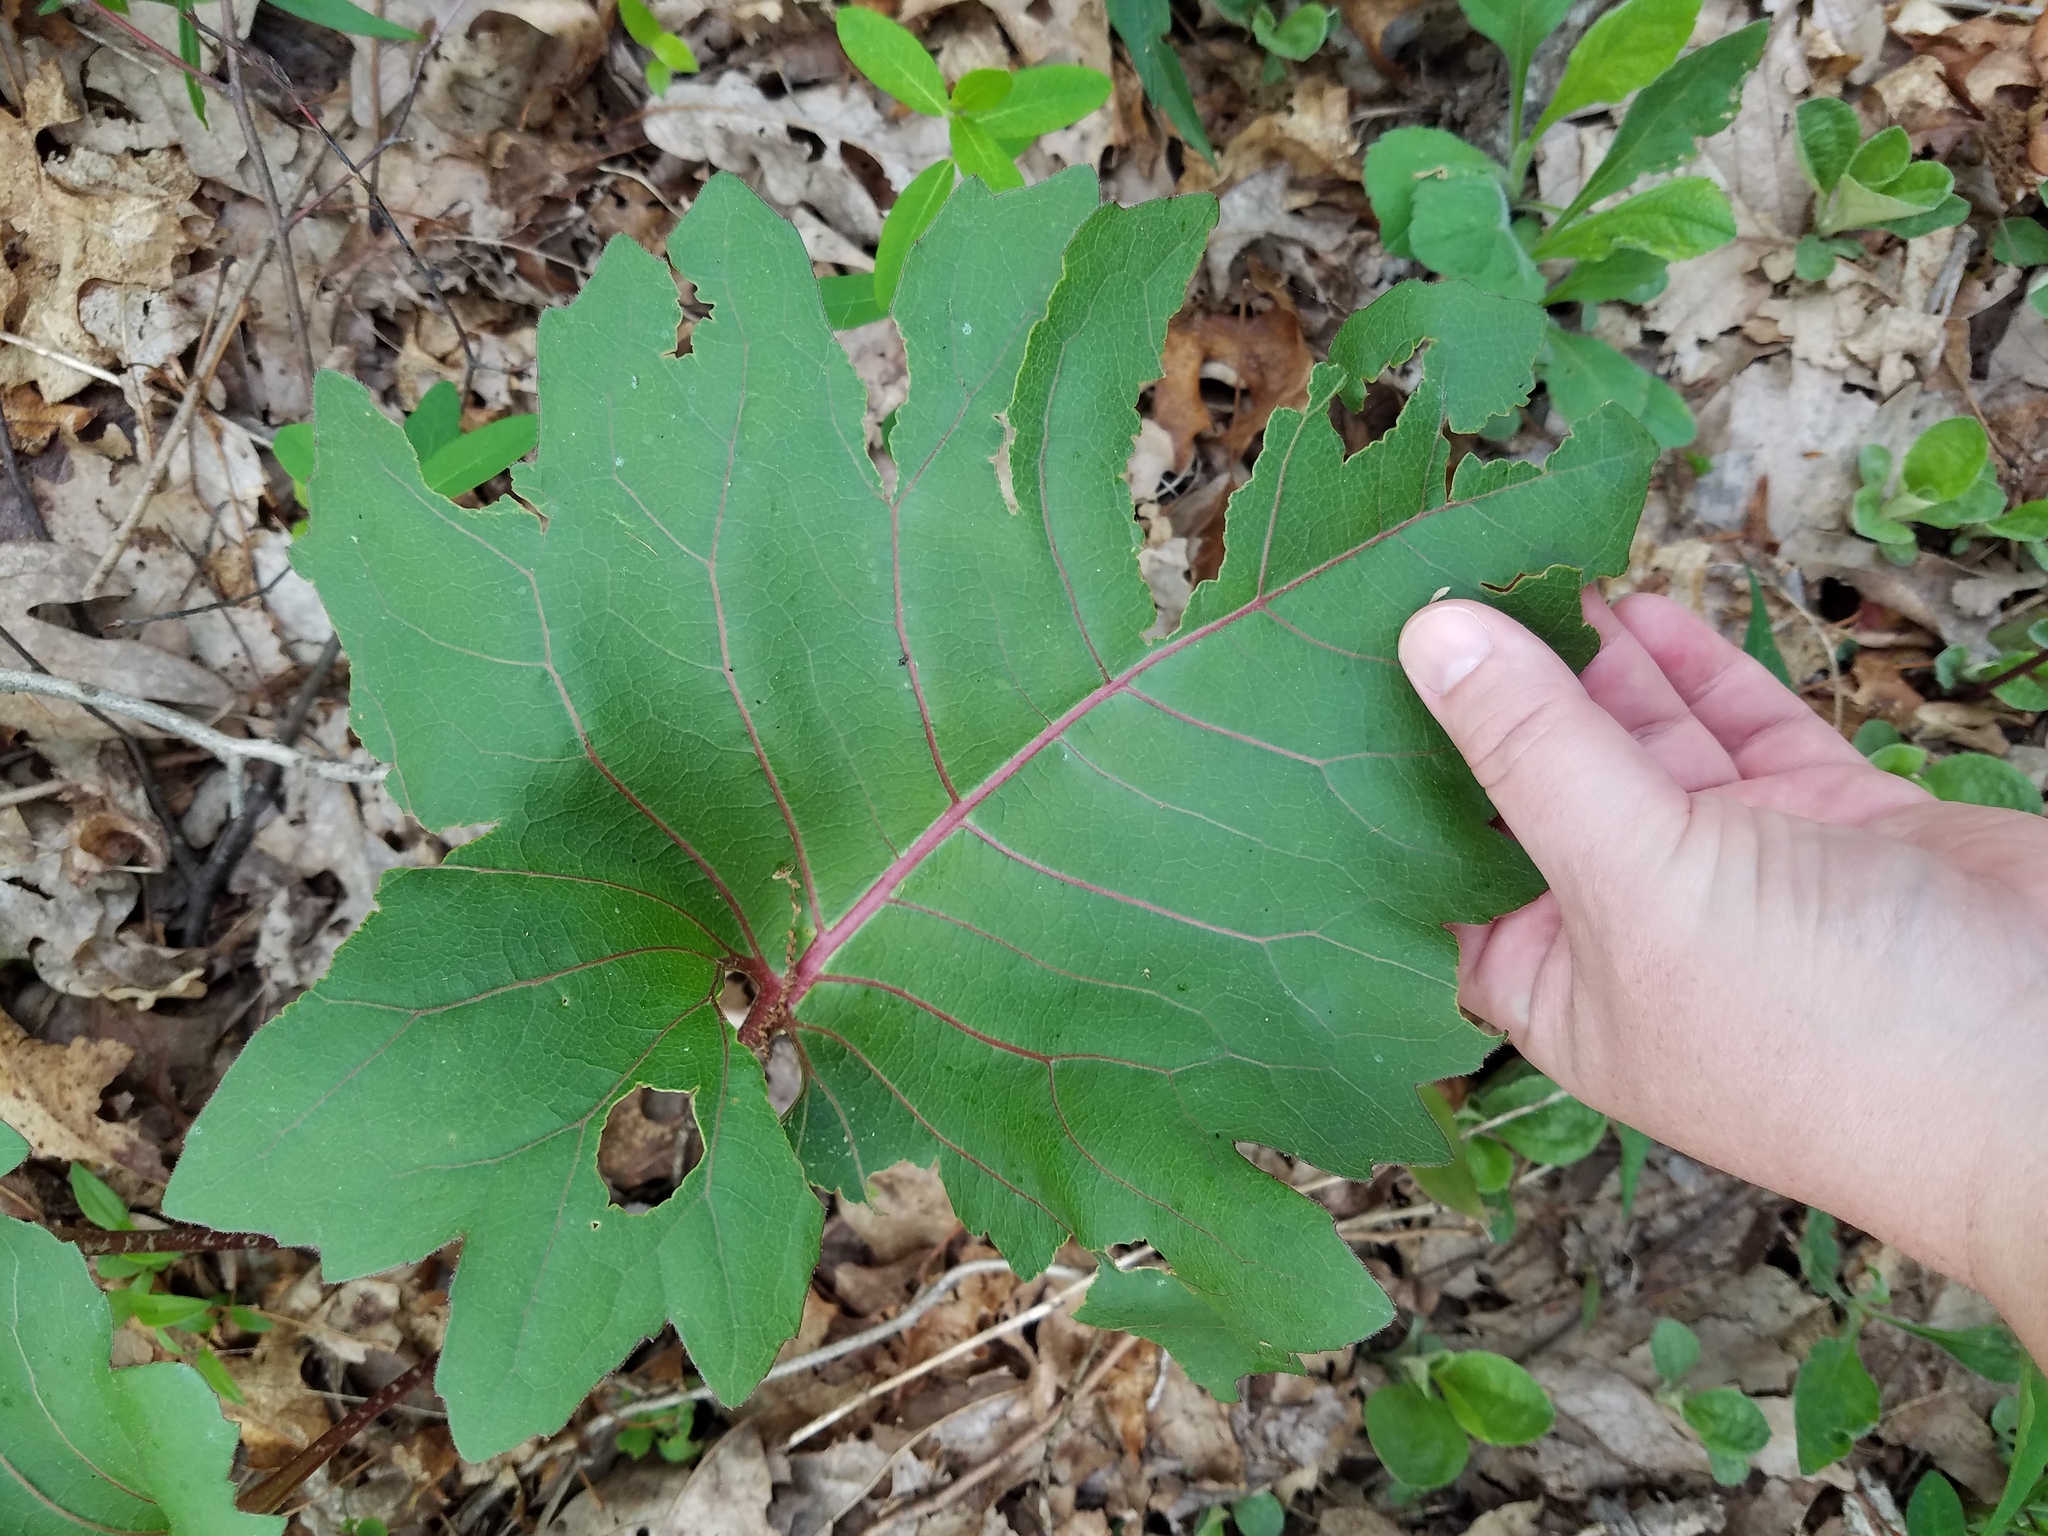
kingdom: Plantae
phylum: Tracheophyta
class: Magnoliopsida
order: Asterales
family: Asteraceae
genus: Silphium
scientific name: Silphium compositum
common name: Lesser basal-leaf rosinweed
